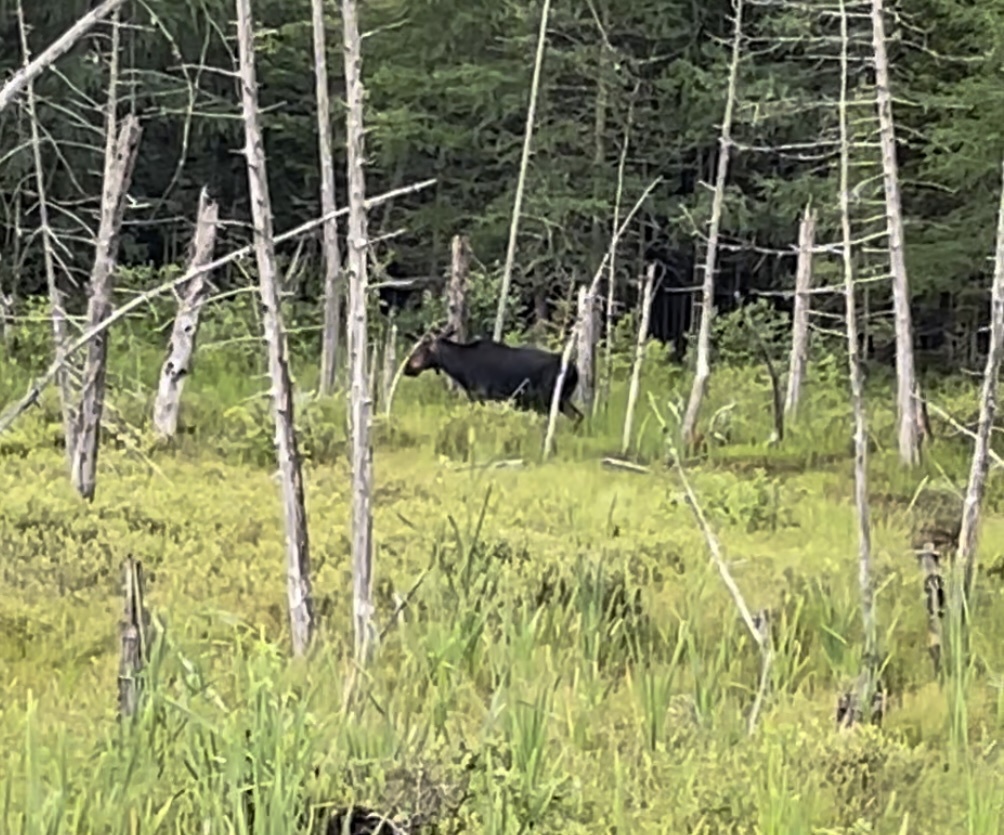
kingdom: Animalia
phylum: Chordata
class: Mammalia
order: Artiodactyla
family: Cervidae
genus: Alces
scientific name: Alces alces
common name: Moose
